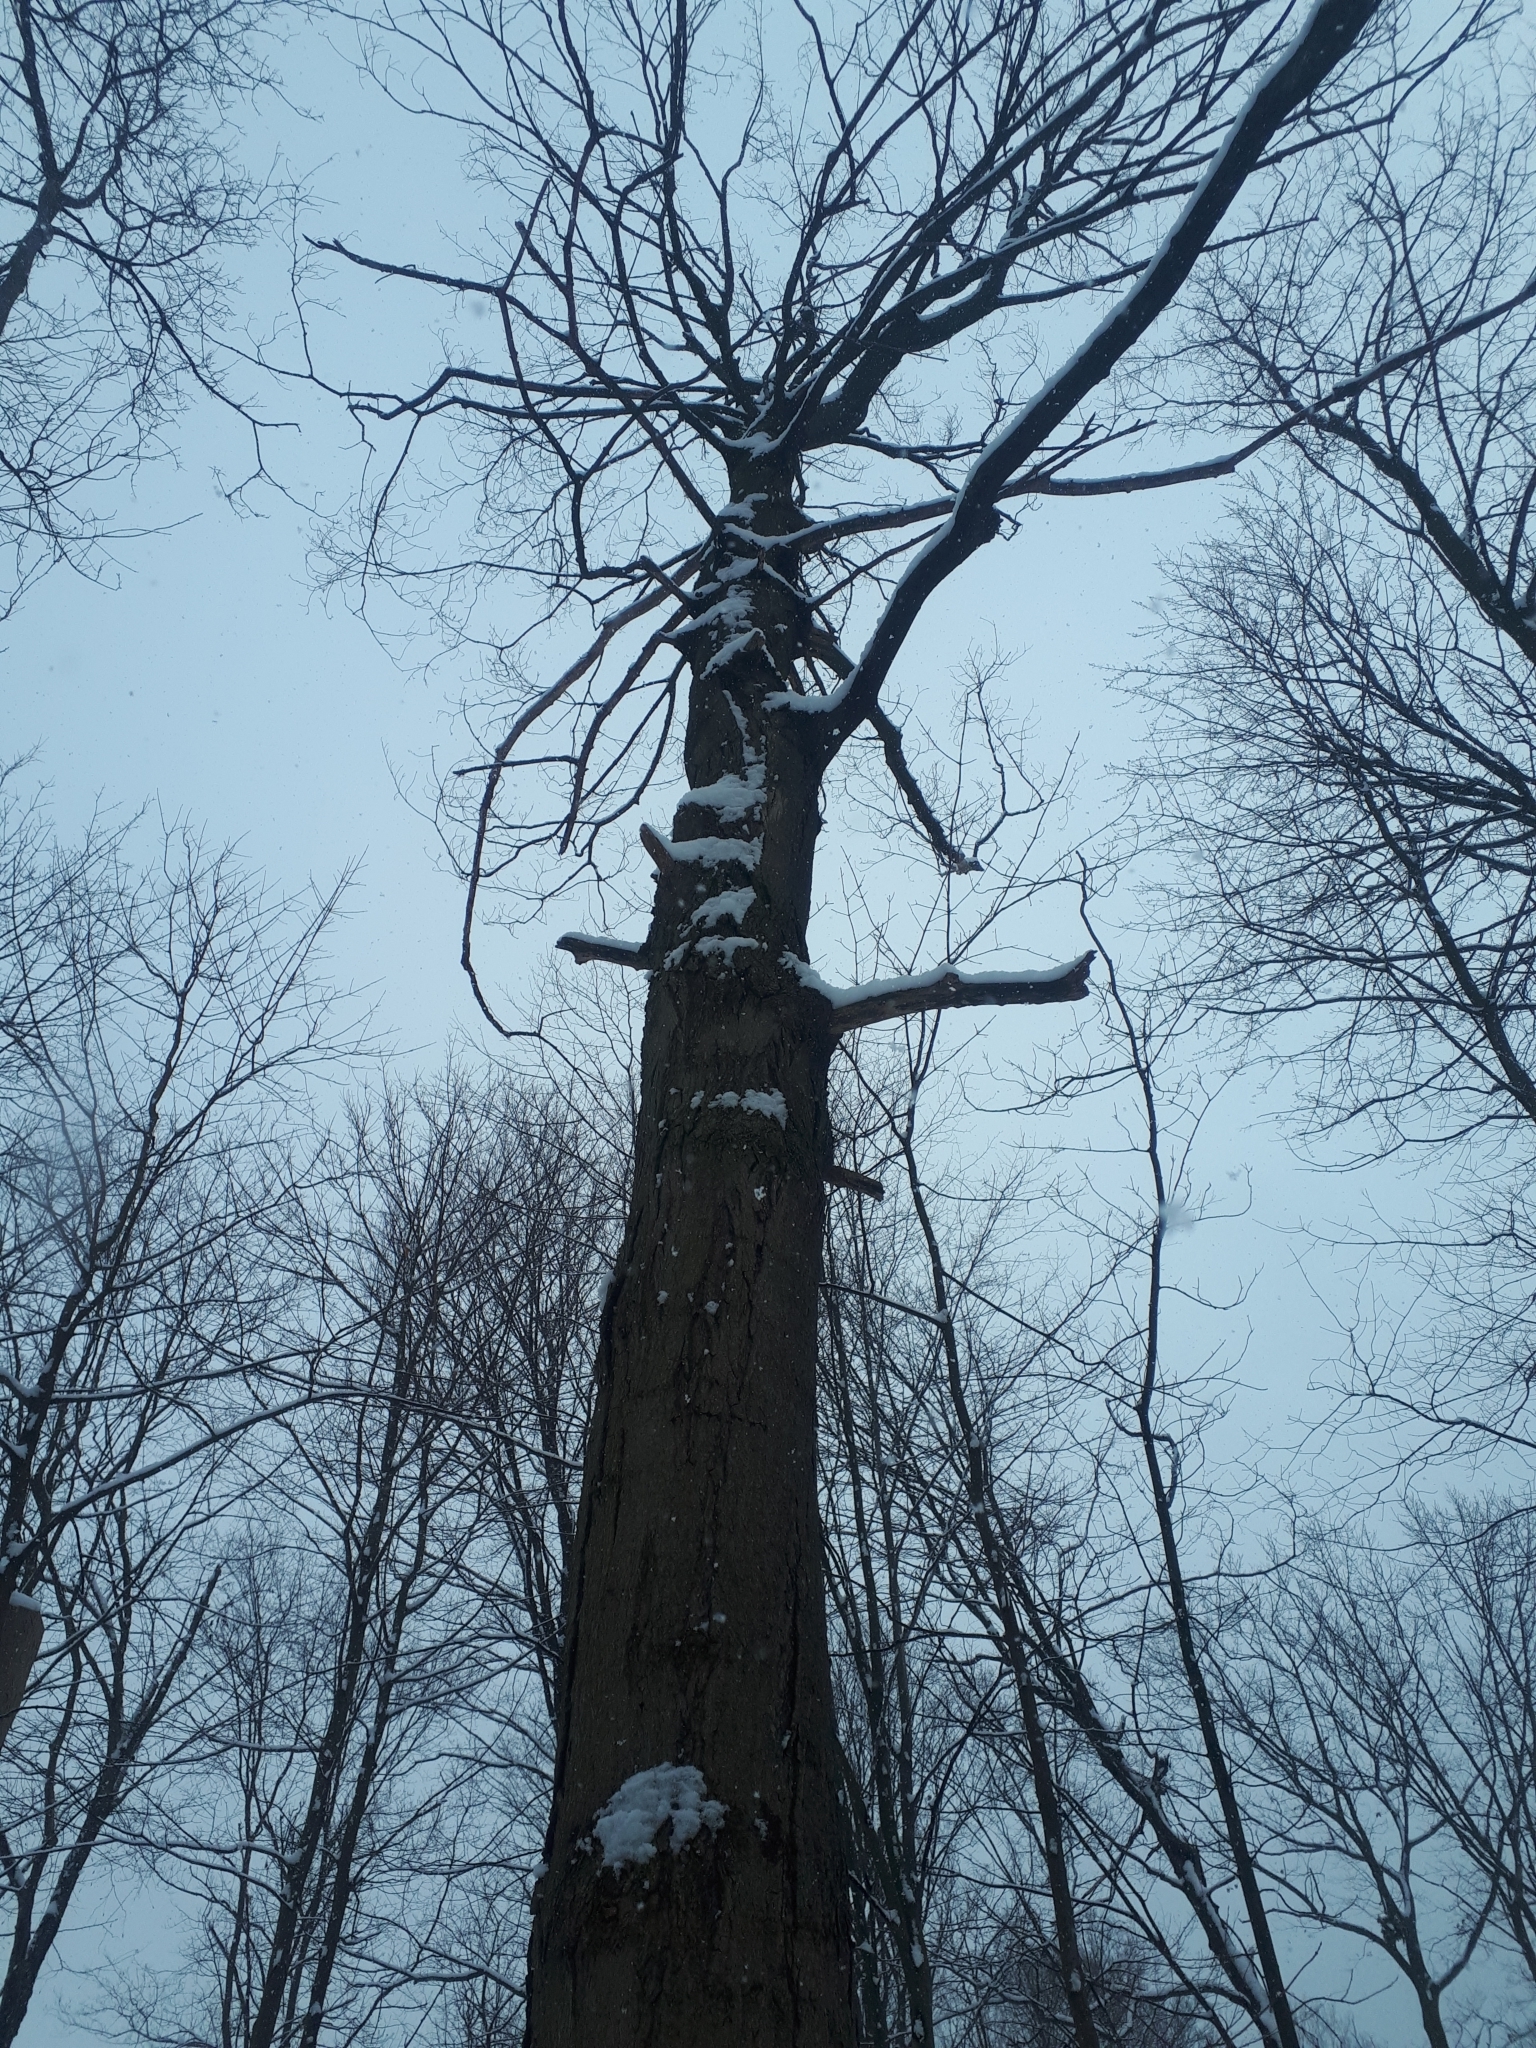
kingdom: Plantae
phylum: Tracheophyta
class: Magnoliopsida
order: Sapindales
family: Sapindaceae
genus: Acer
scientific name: Acer saccharum
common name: Sugar maple
